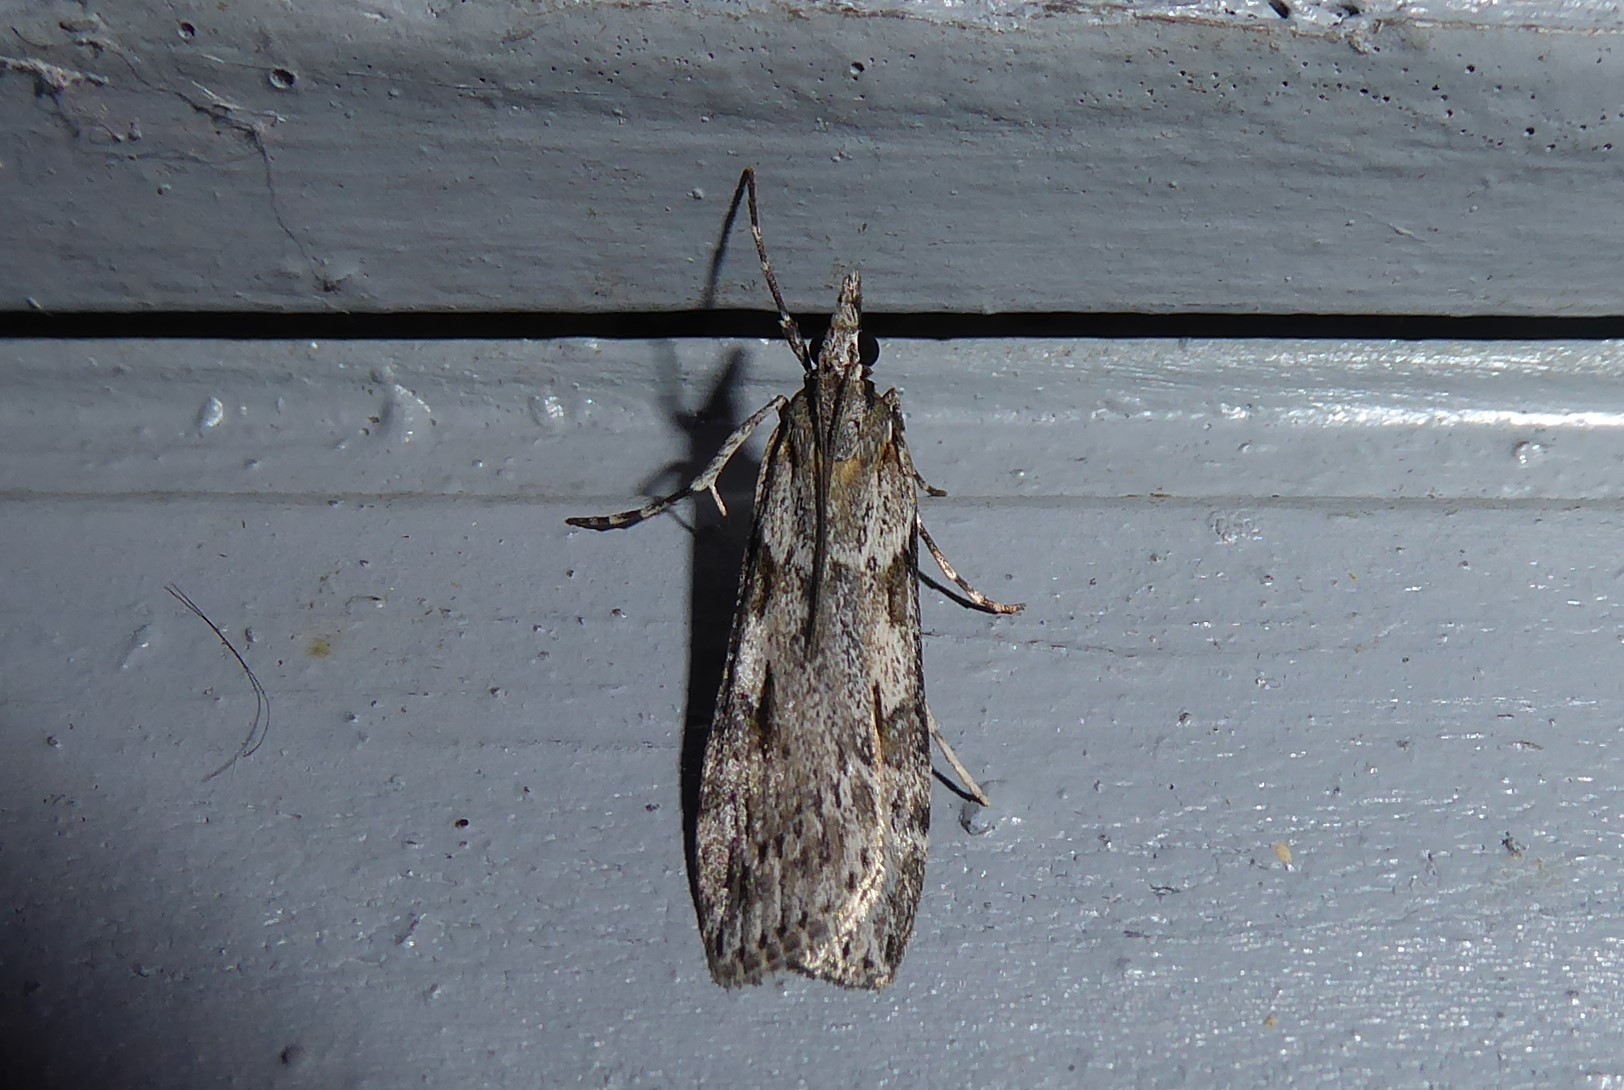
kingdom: Animalia
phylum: Arthropoda
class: Insecta
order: Lepidoptera
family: Crambidae
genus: Scoparia
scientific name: Scoparia halopis
